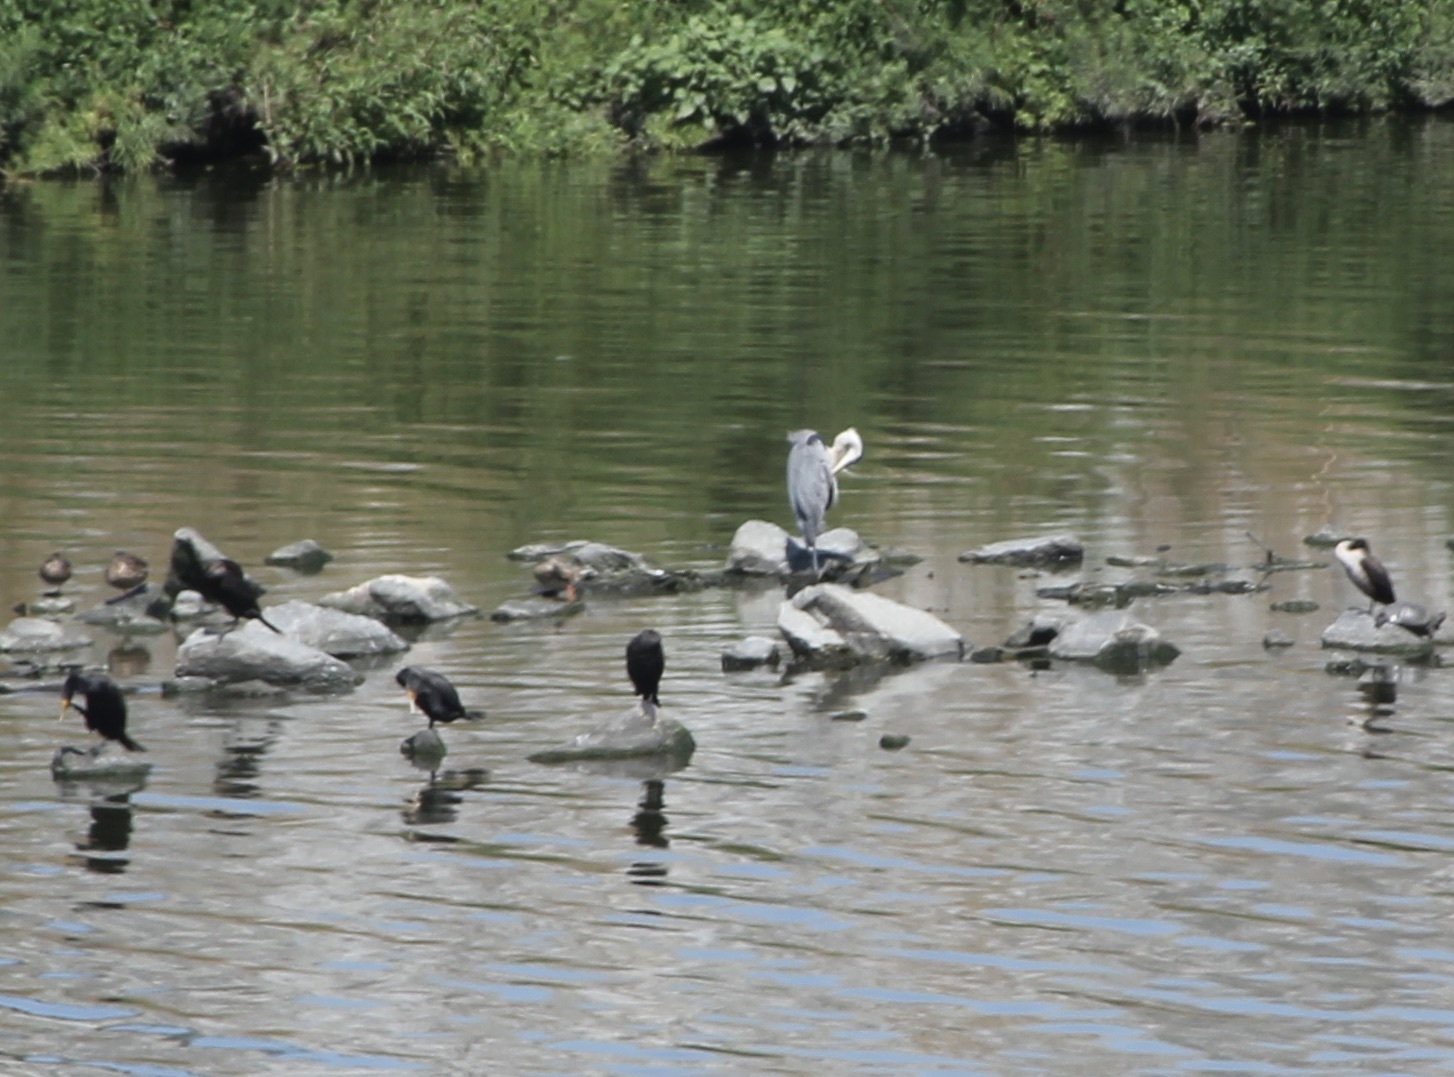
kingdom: Animalia
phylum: Chordata
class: Aves
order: Pelecaniformes
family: Ardeidae
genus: Ardea
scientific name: Ardea herodias
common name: Great blue heron
